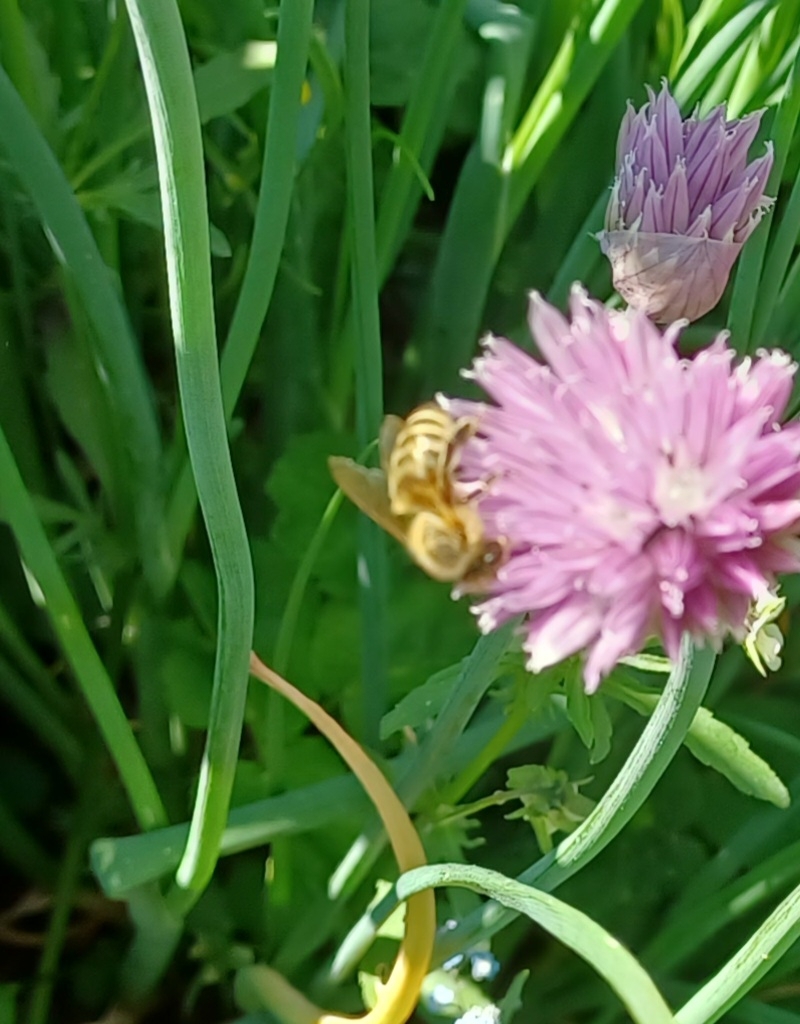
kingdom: Animalia
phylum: Arthropoda
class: Insecta
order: Hymenoptera
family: Apidae
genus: Apis
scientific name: Apis mellifera
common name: Honey bee
